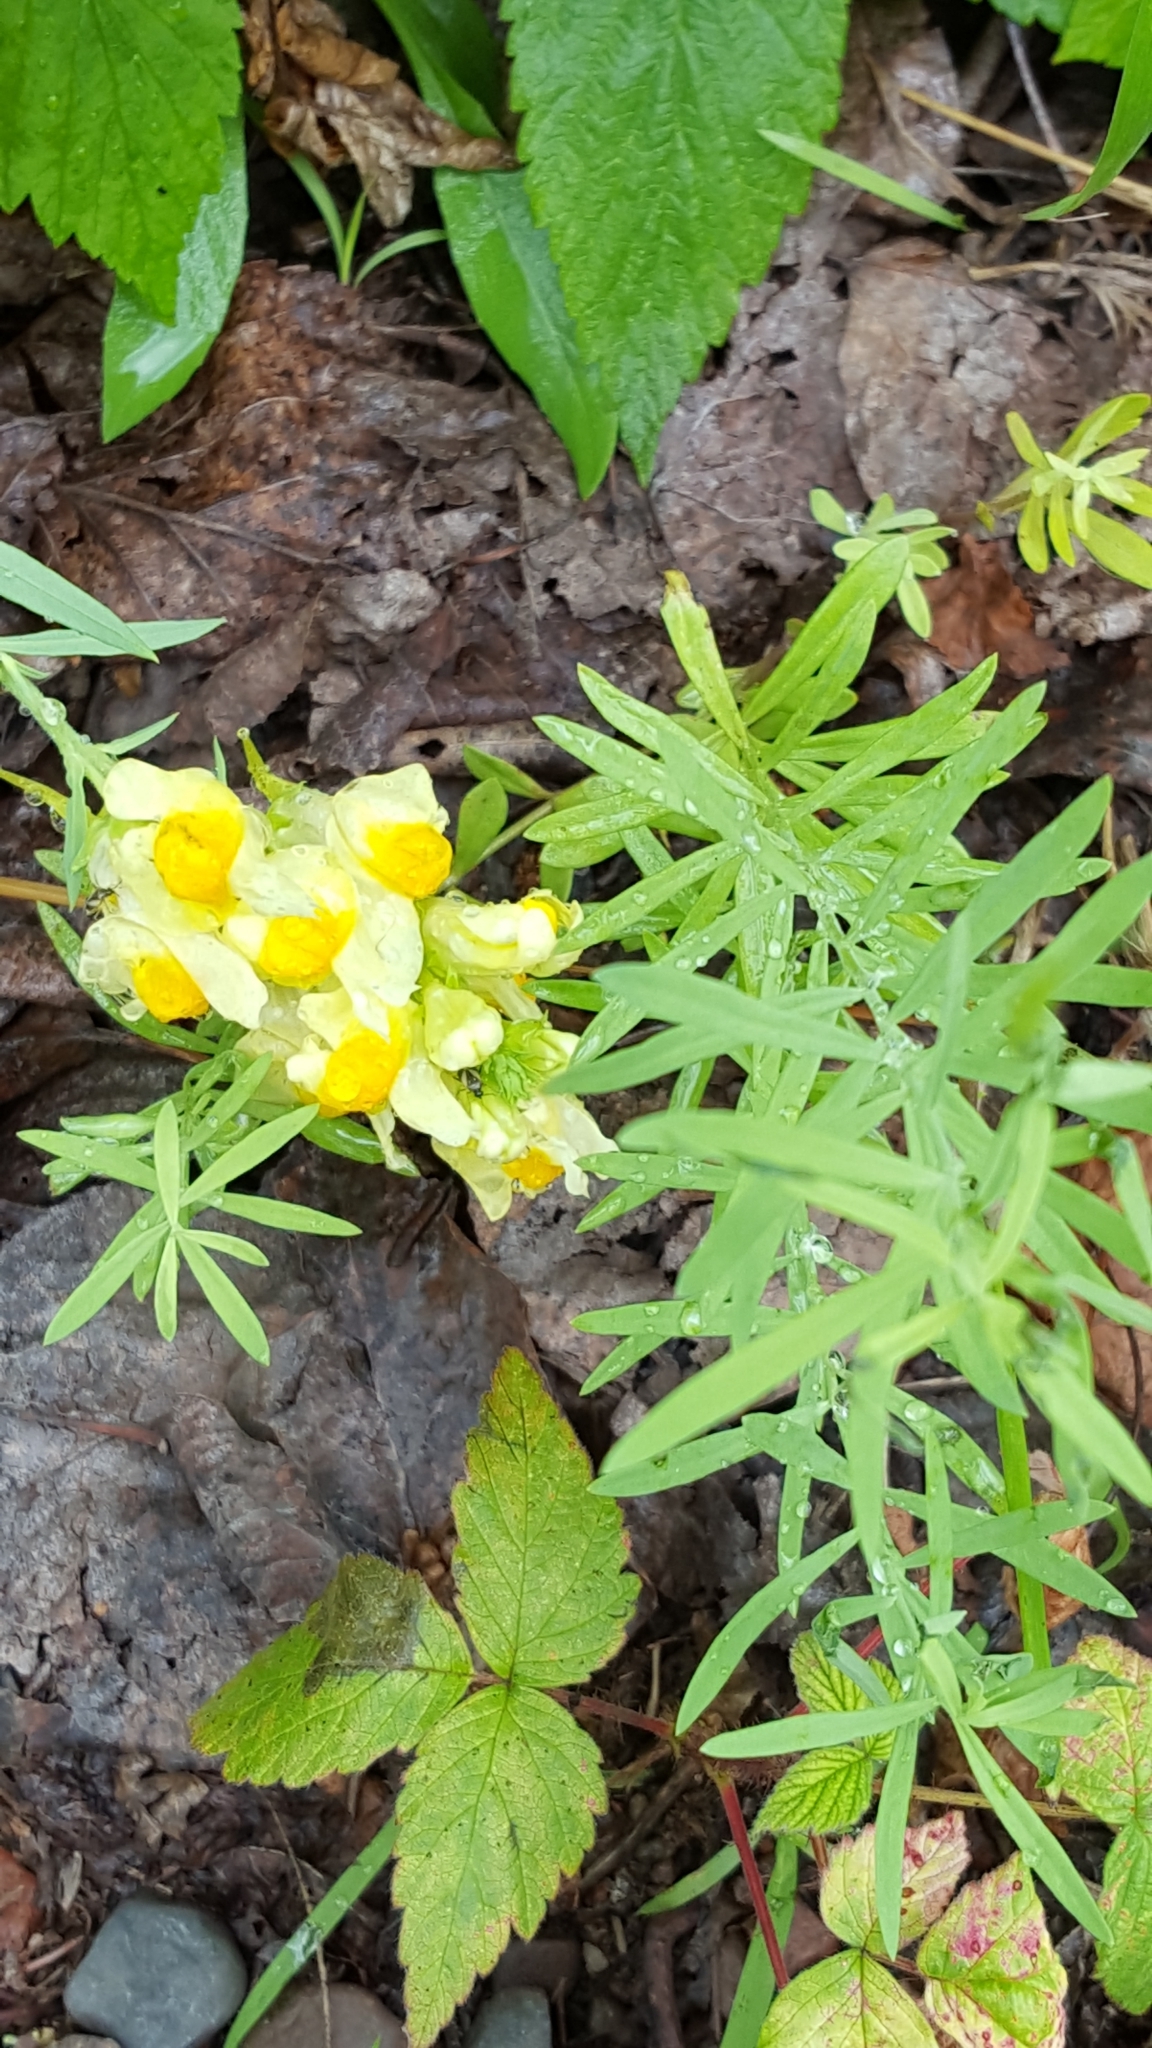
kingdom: Plantae
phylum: Tracheophyta
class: Magnoliopsida
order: Lamiales
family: Plantaginaceae
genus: Linaria
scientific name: Linaria vulgaris
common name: Butter and eggs
